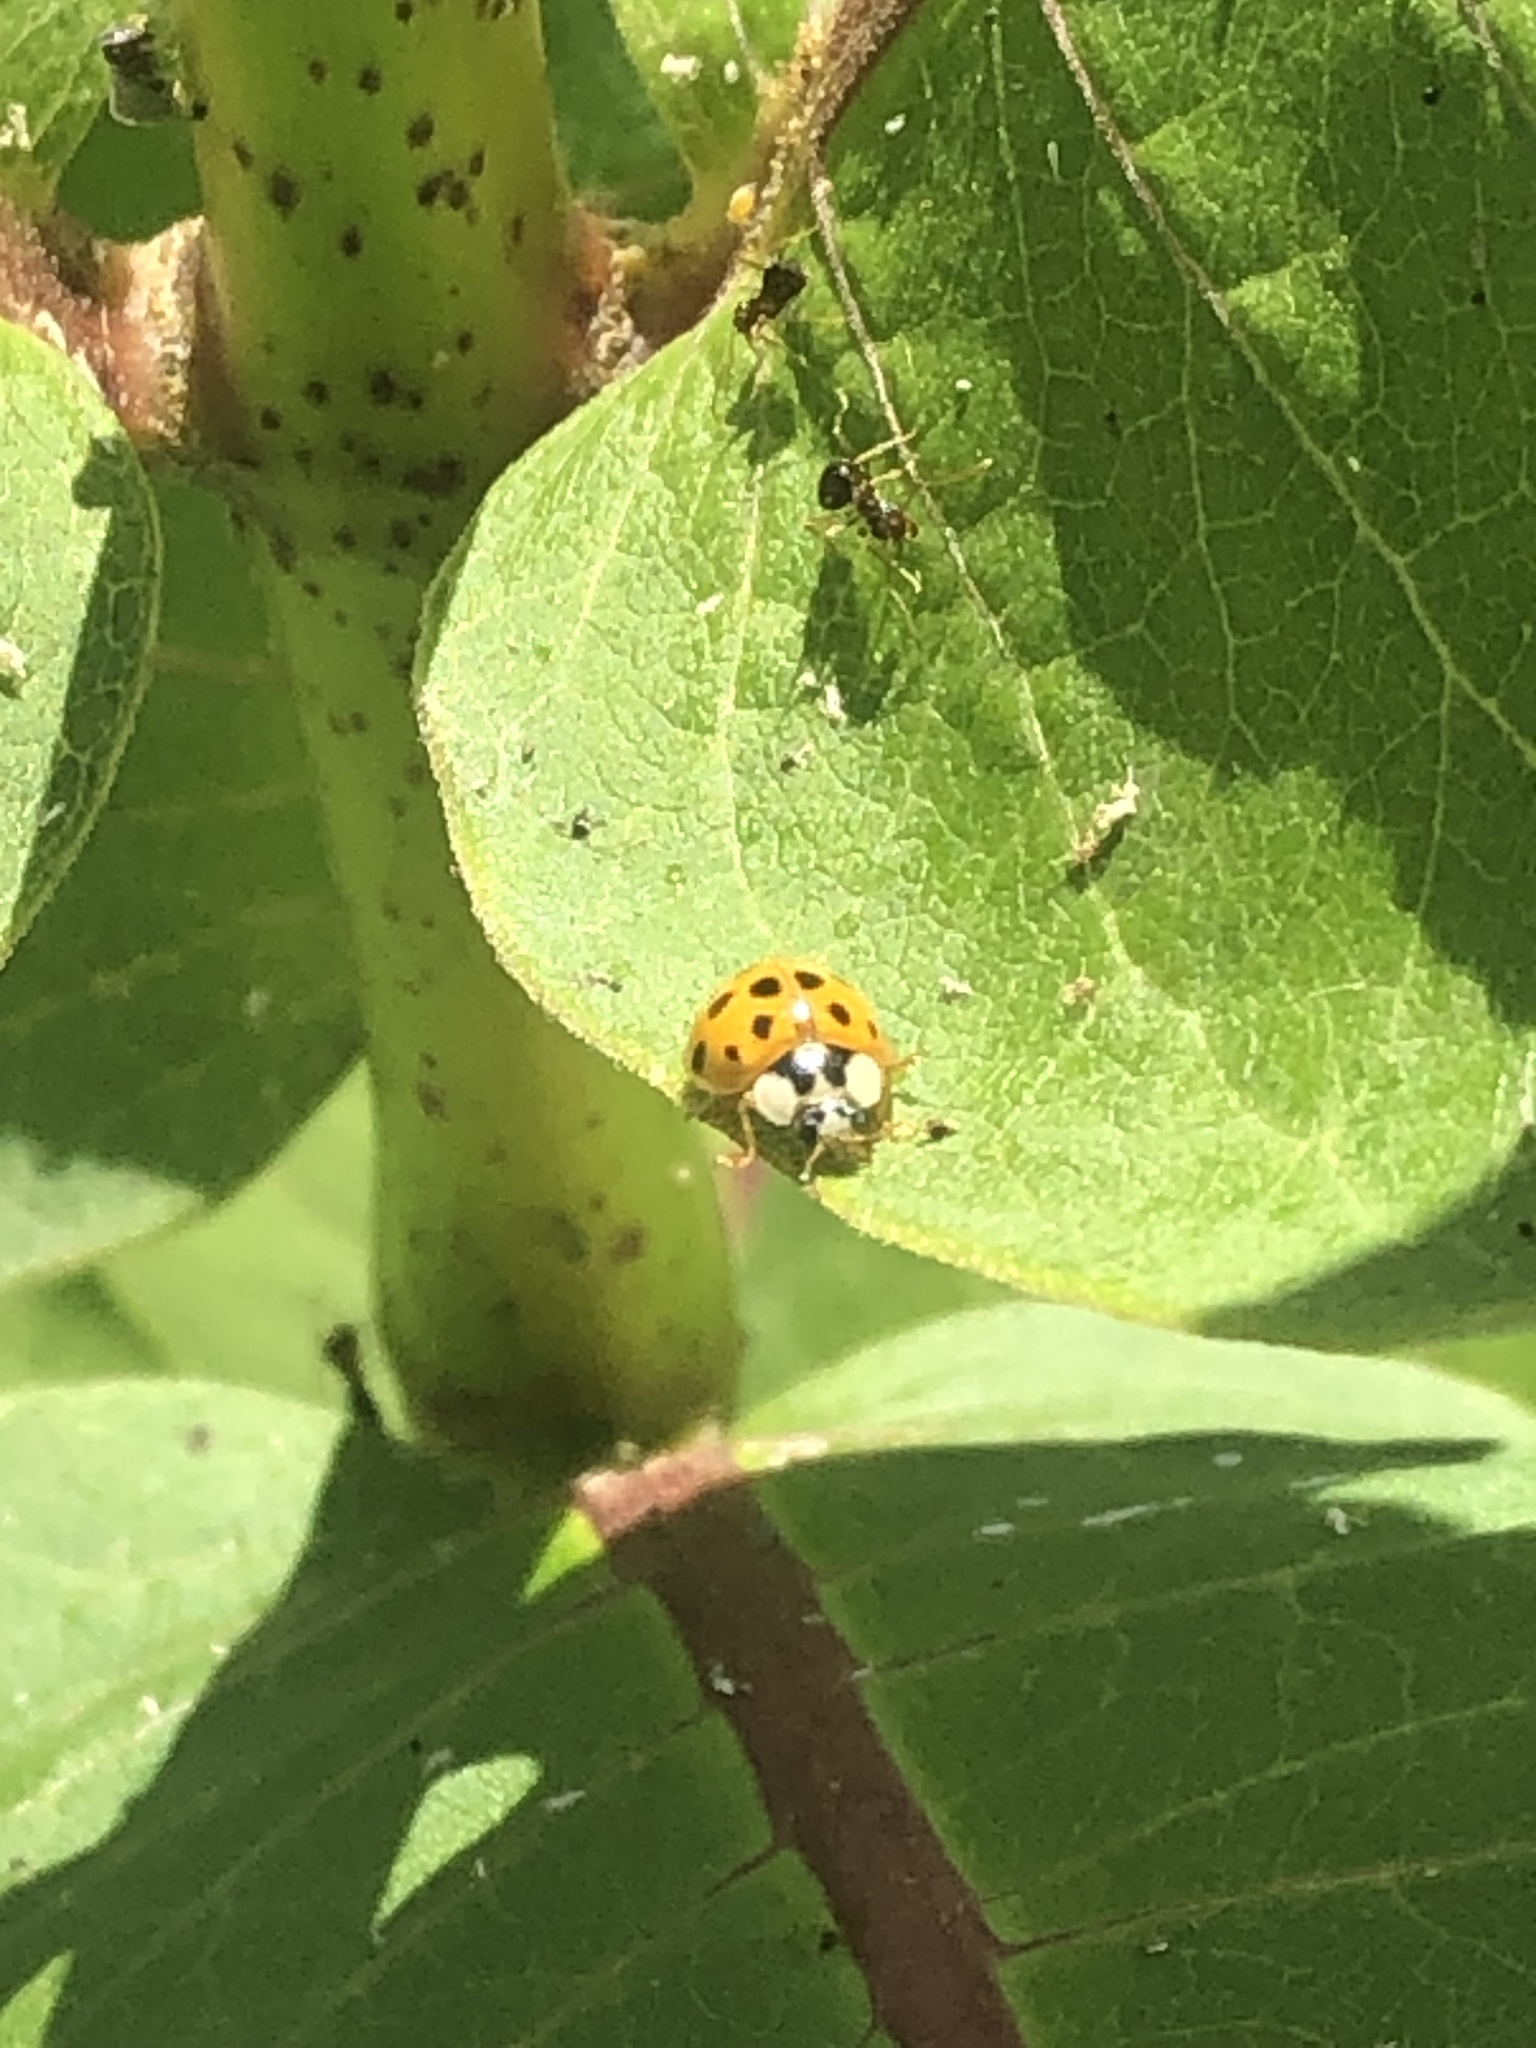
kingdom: Animalia
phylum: Arthropoda
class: Insecta
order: Coleoptera
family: Coccinellidae
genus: Harmonia
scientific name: Harmonia axyridis
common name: Harlequin ladybird
